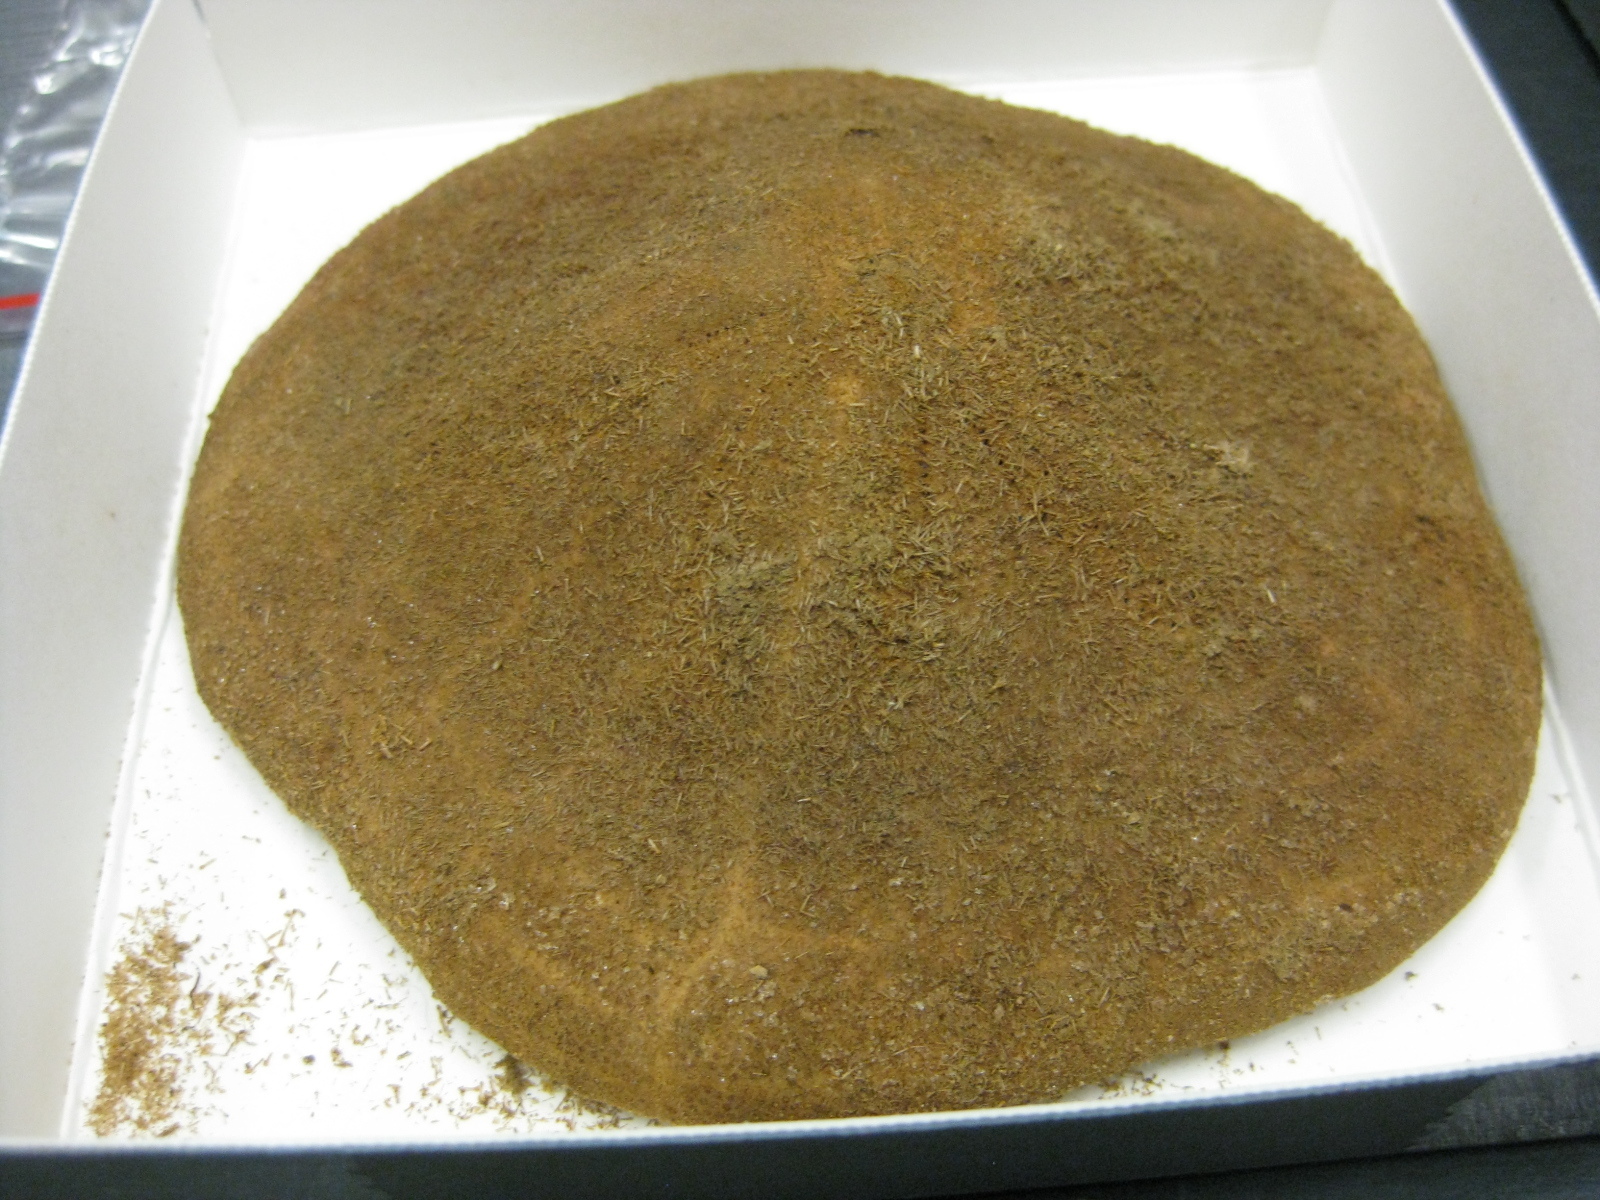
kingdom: Animalia
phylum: Echinodermata
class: Echinoidea
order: Clypeasteroida
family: Clypeasteridae
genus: Clypeaster
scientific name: Clypeaster australasiae
